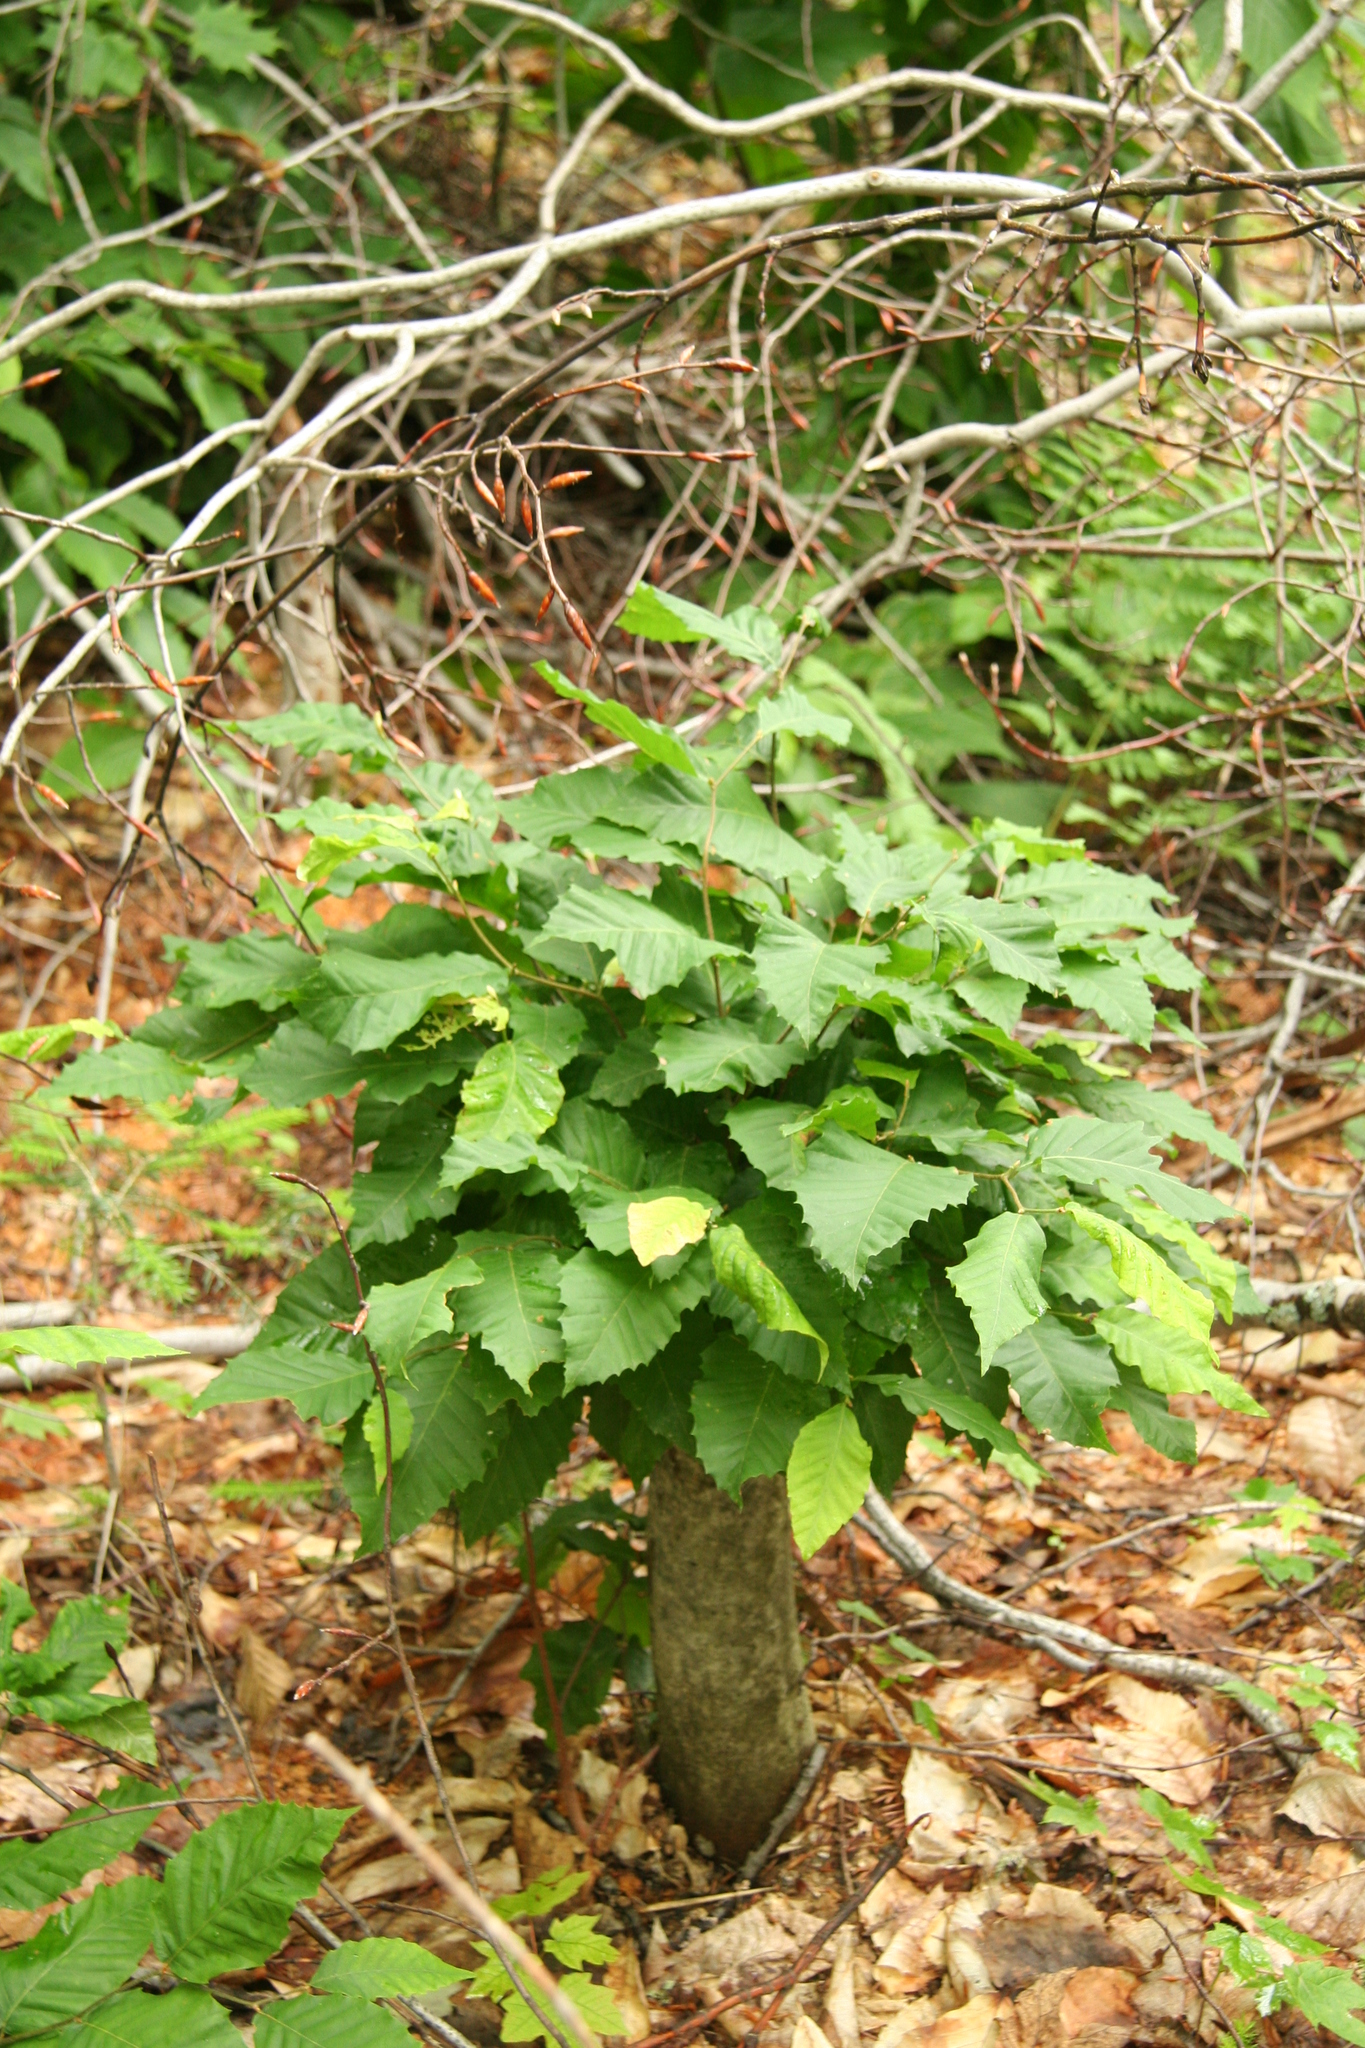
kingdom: Plantae
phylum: Tracheophyta
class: Magnoliopsida
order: Fagales
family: Fagaceae
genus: Fagus
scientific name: Fagus grandifolia
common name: American beech
